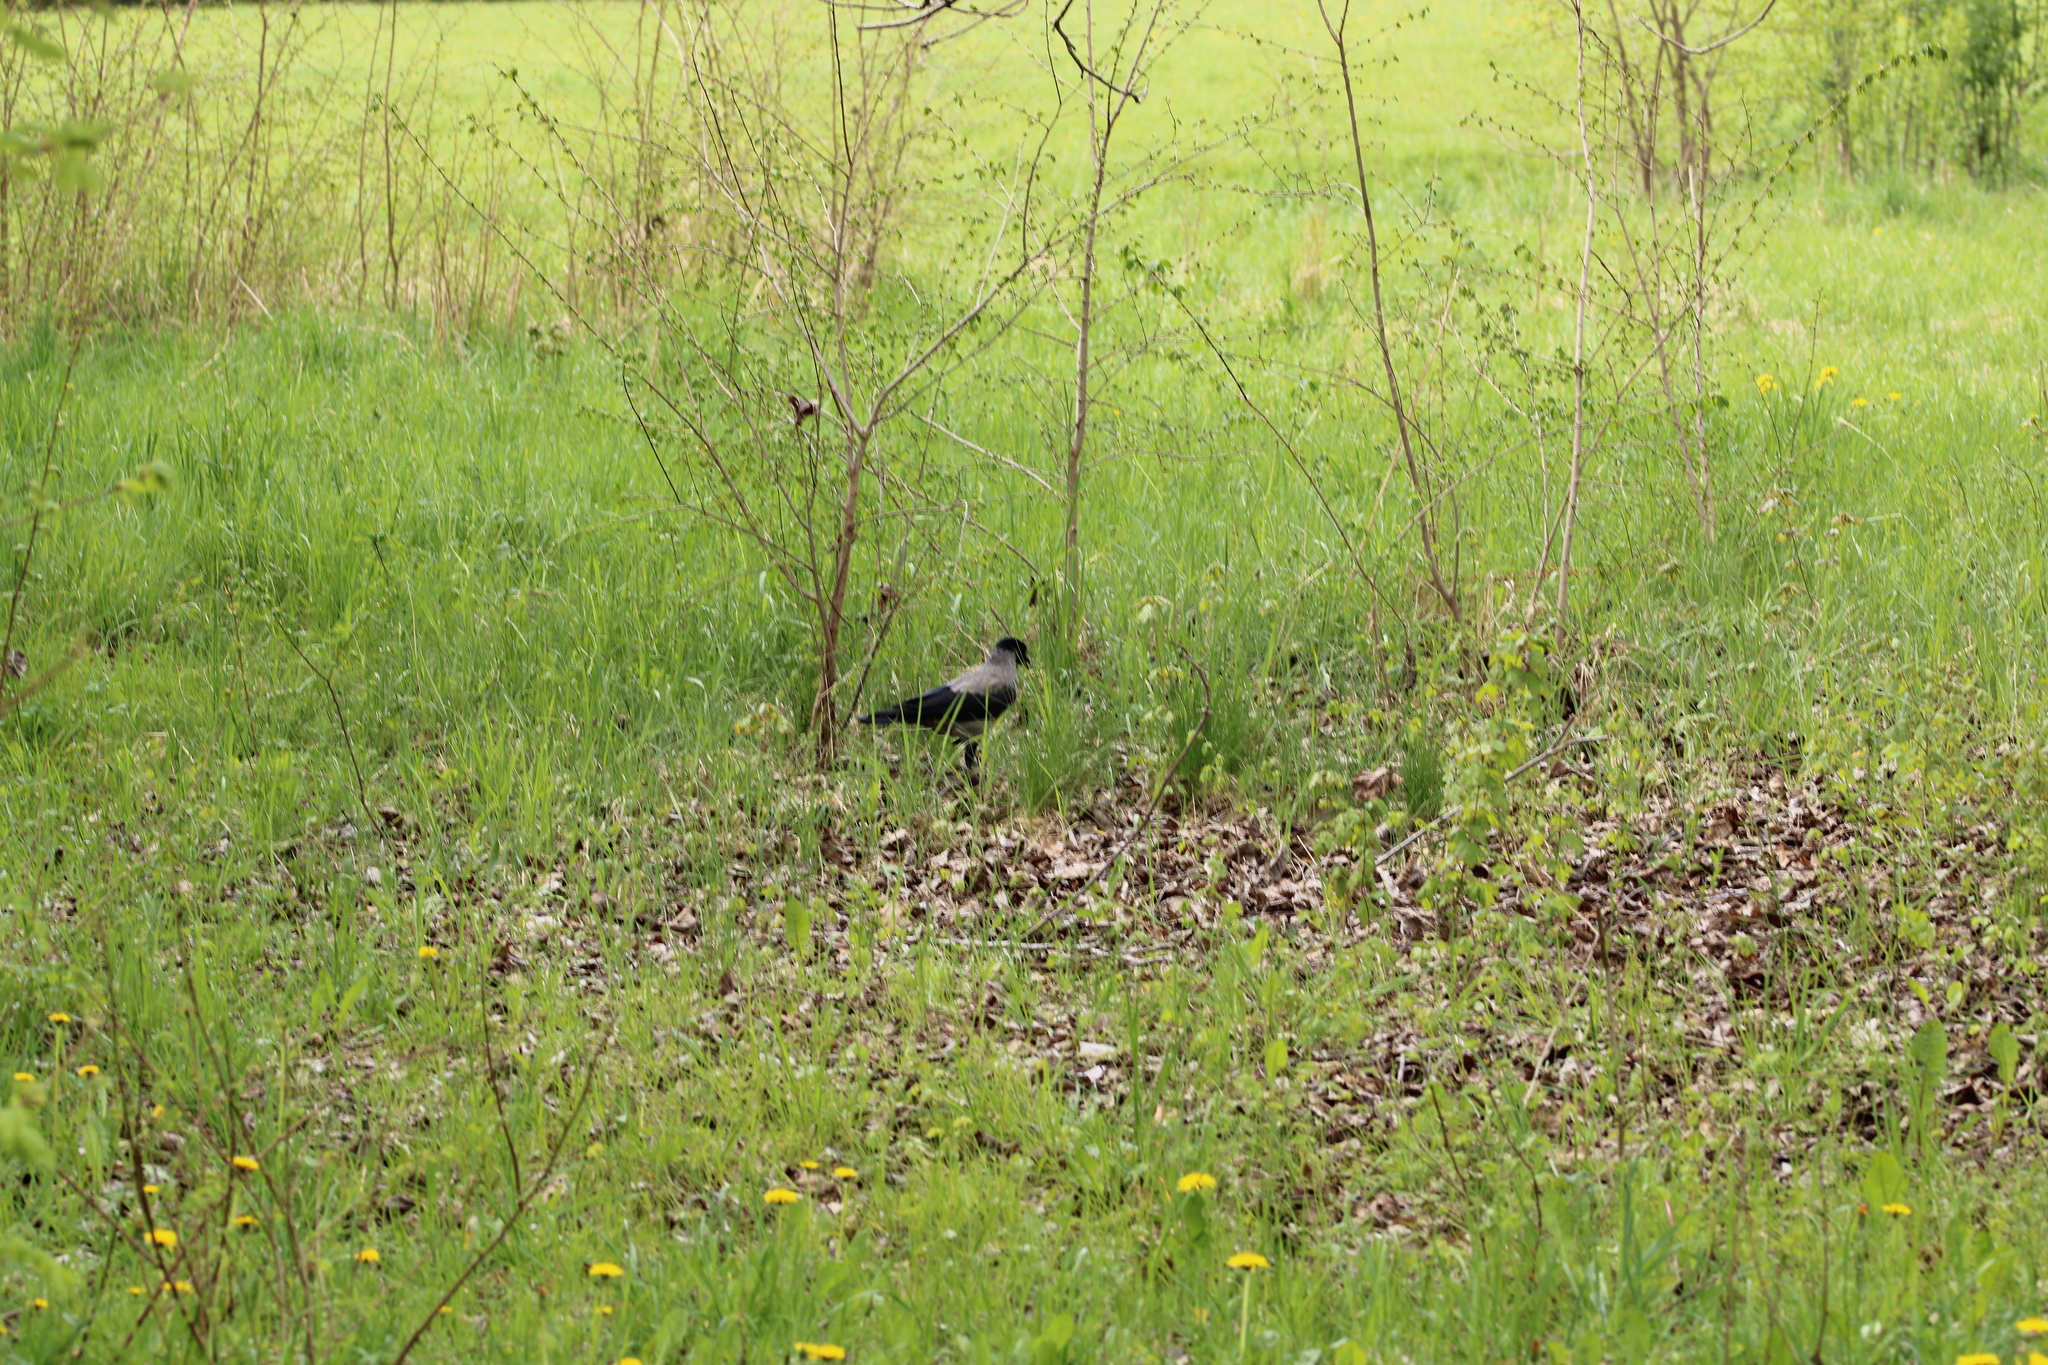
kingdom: Animalia
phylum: Chordata
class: Aves
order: Passeriformes
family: Corvidae
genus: Corvus
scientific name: Corvus cornix
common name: Hooded crow
